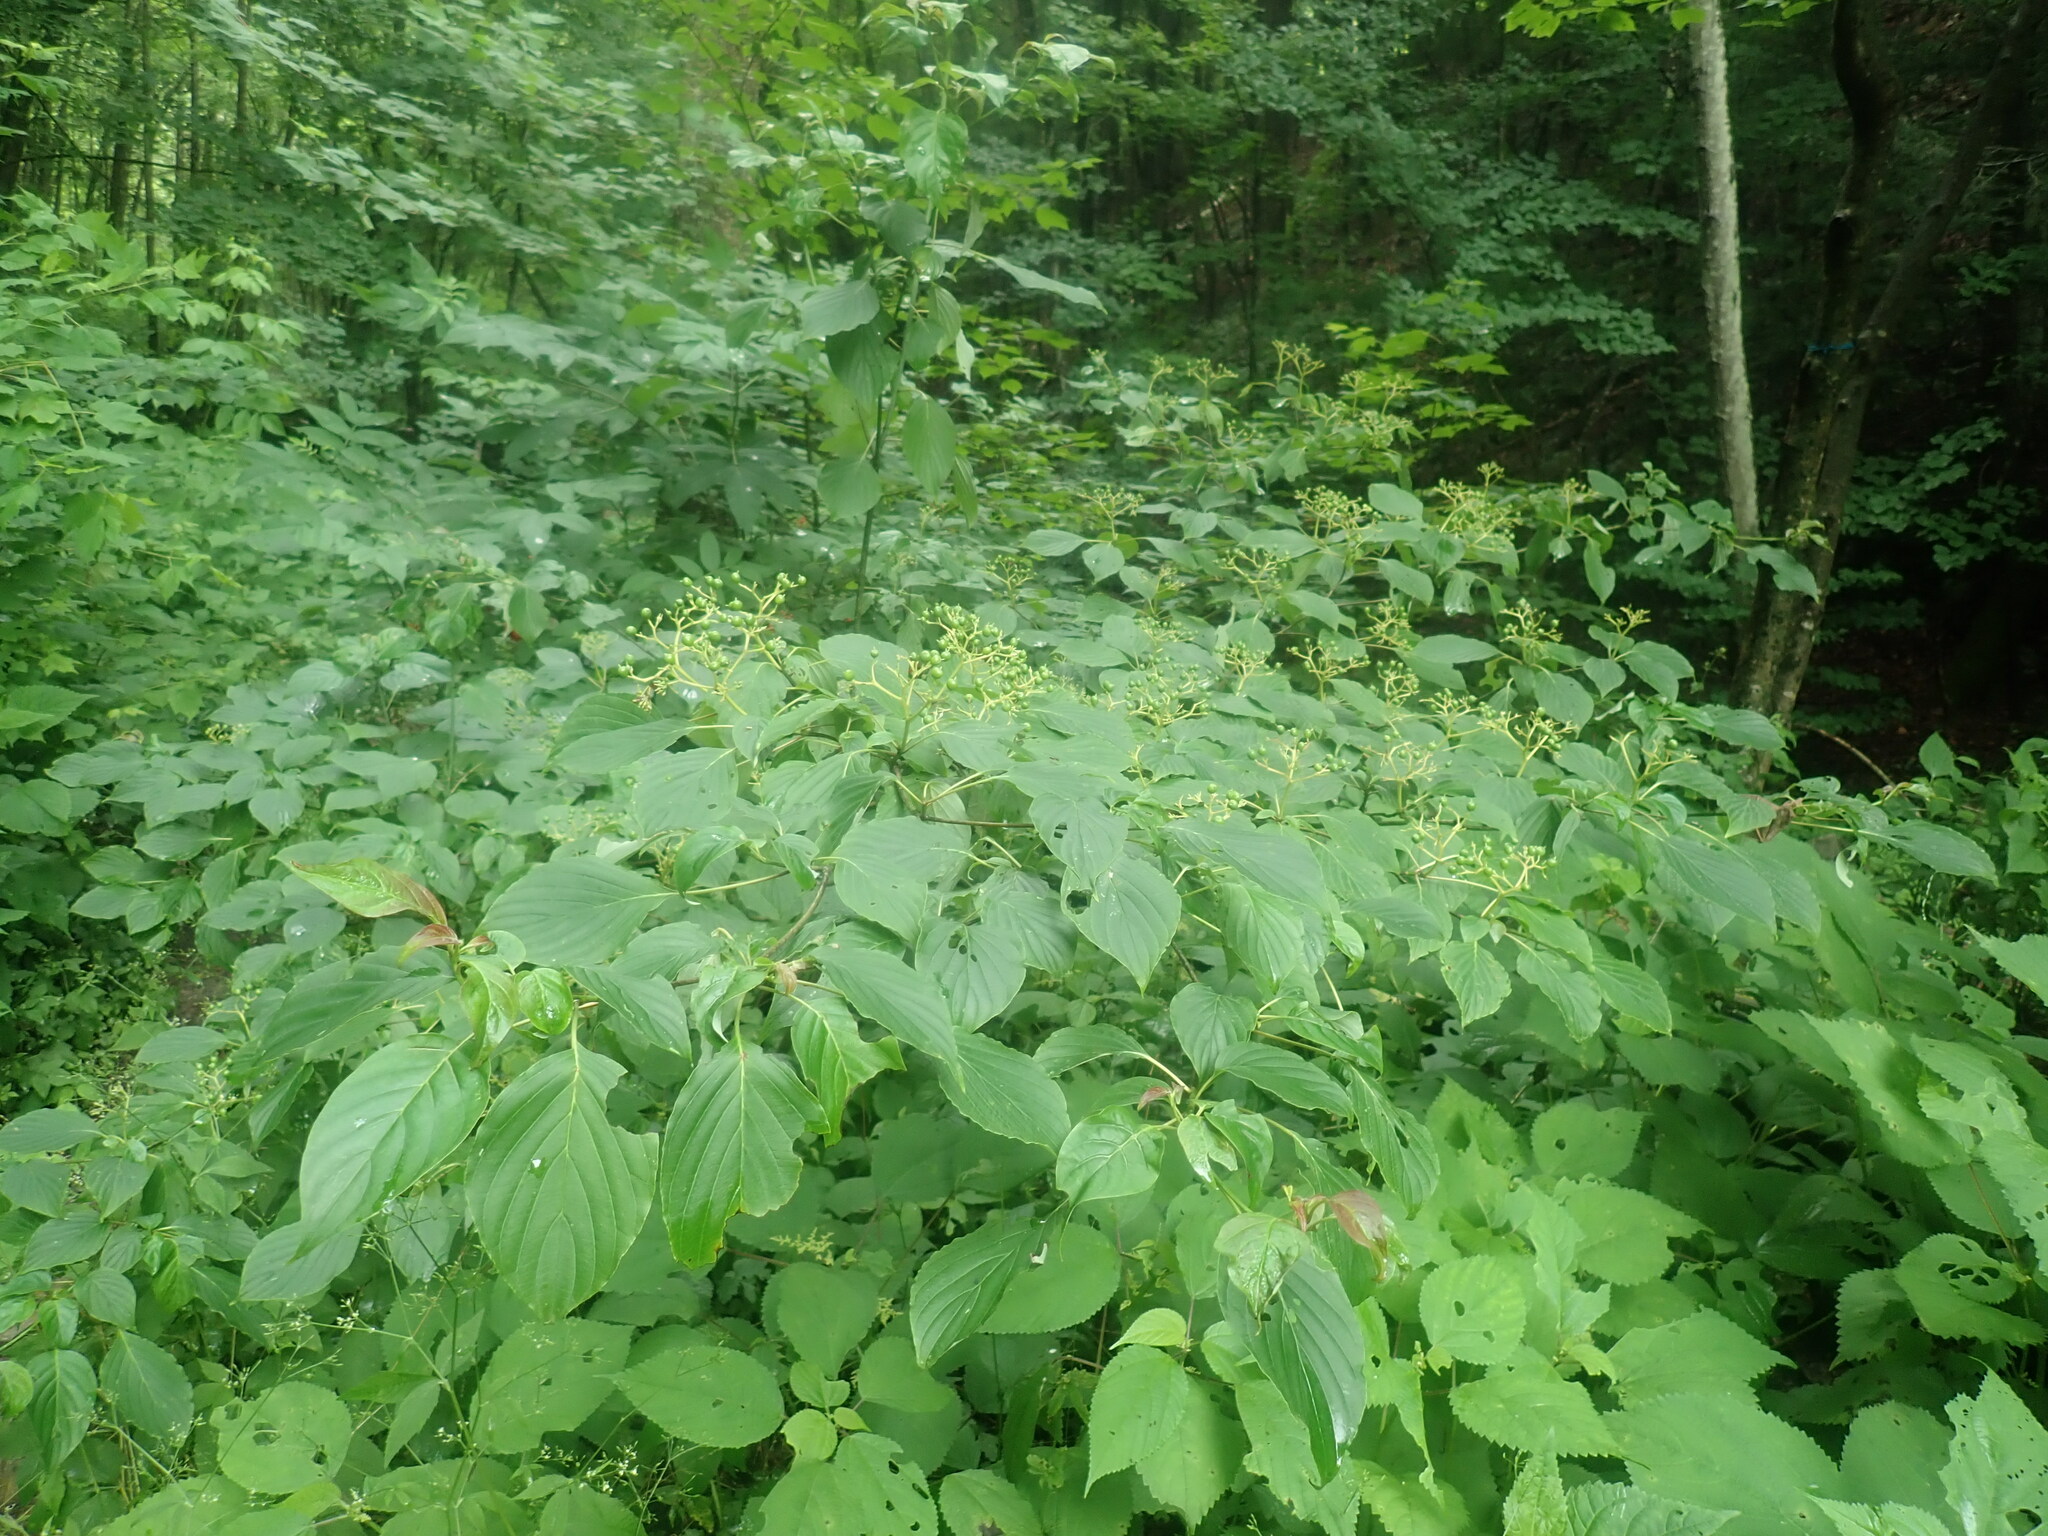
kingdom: Plantae
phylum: Tracheophyta
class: Magnoliopsida
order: Cornales
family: Cornaceae
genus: Cornus
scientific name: Cornus alternifolia
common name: Pagoda dogwood
